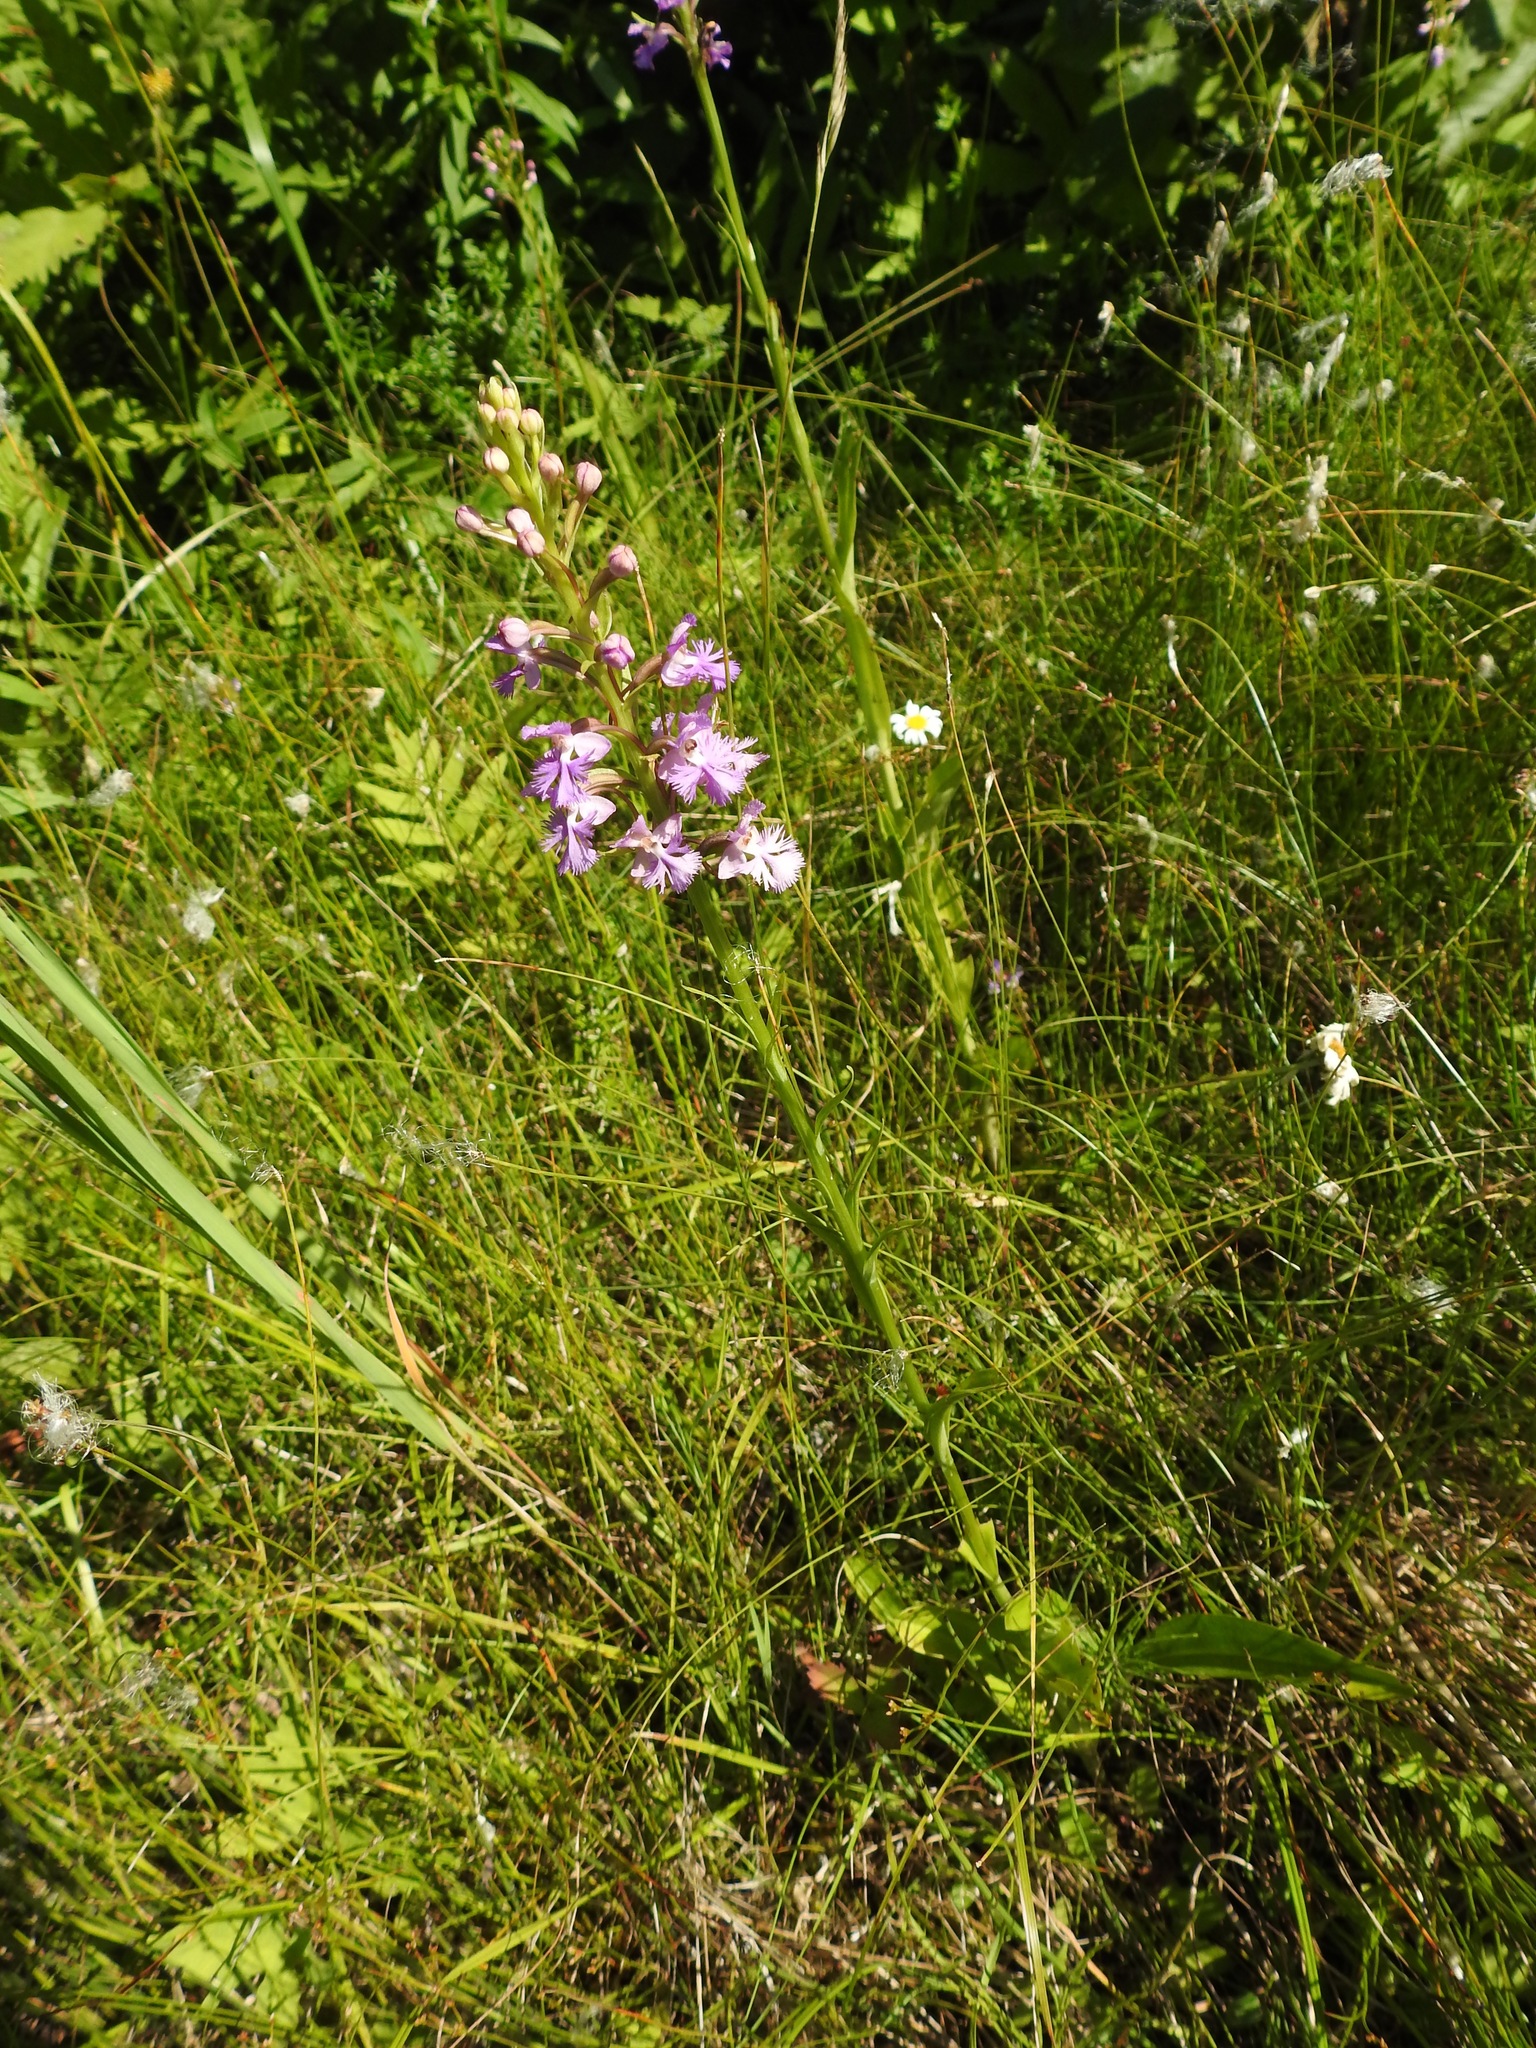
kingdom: Plantae
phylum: Tracheophyta
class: Liliopsida
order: Asparagales
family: Orchidaceae
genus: Platanthera
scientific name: Platanthera psycodes
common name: Lesser purple fringed orchid
